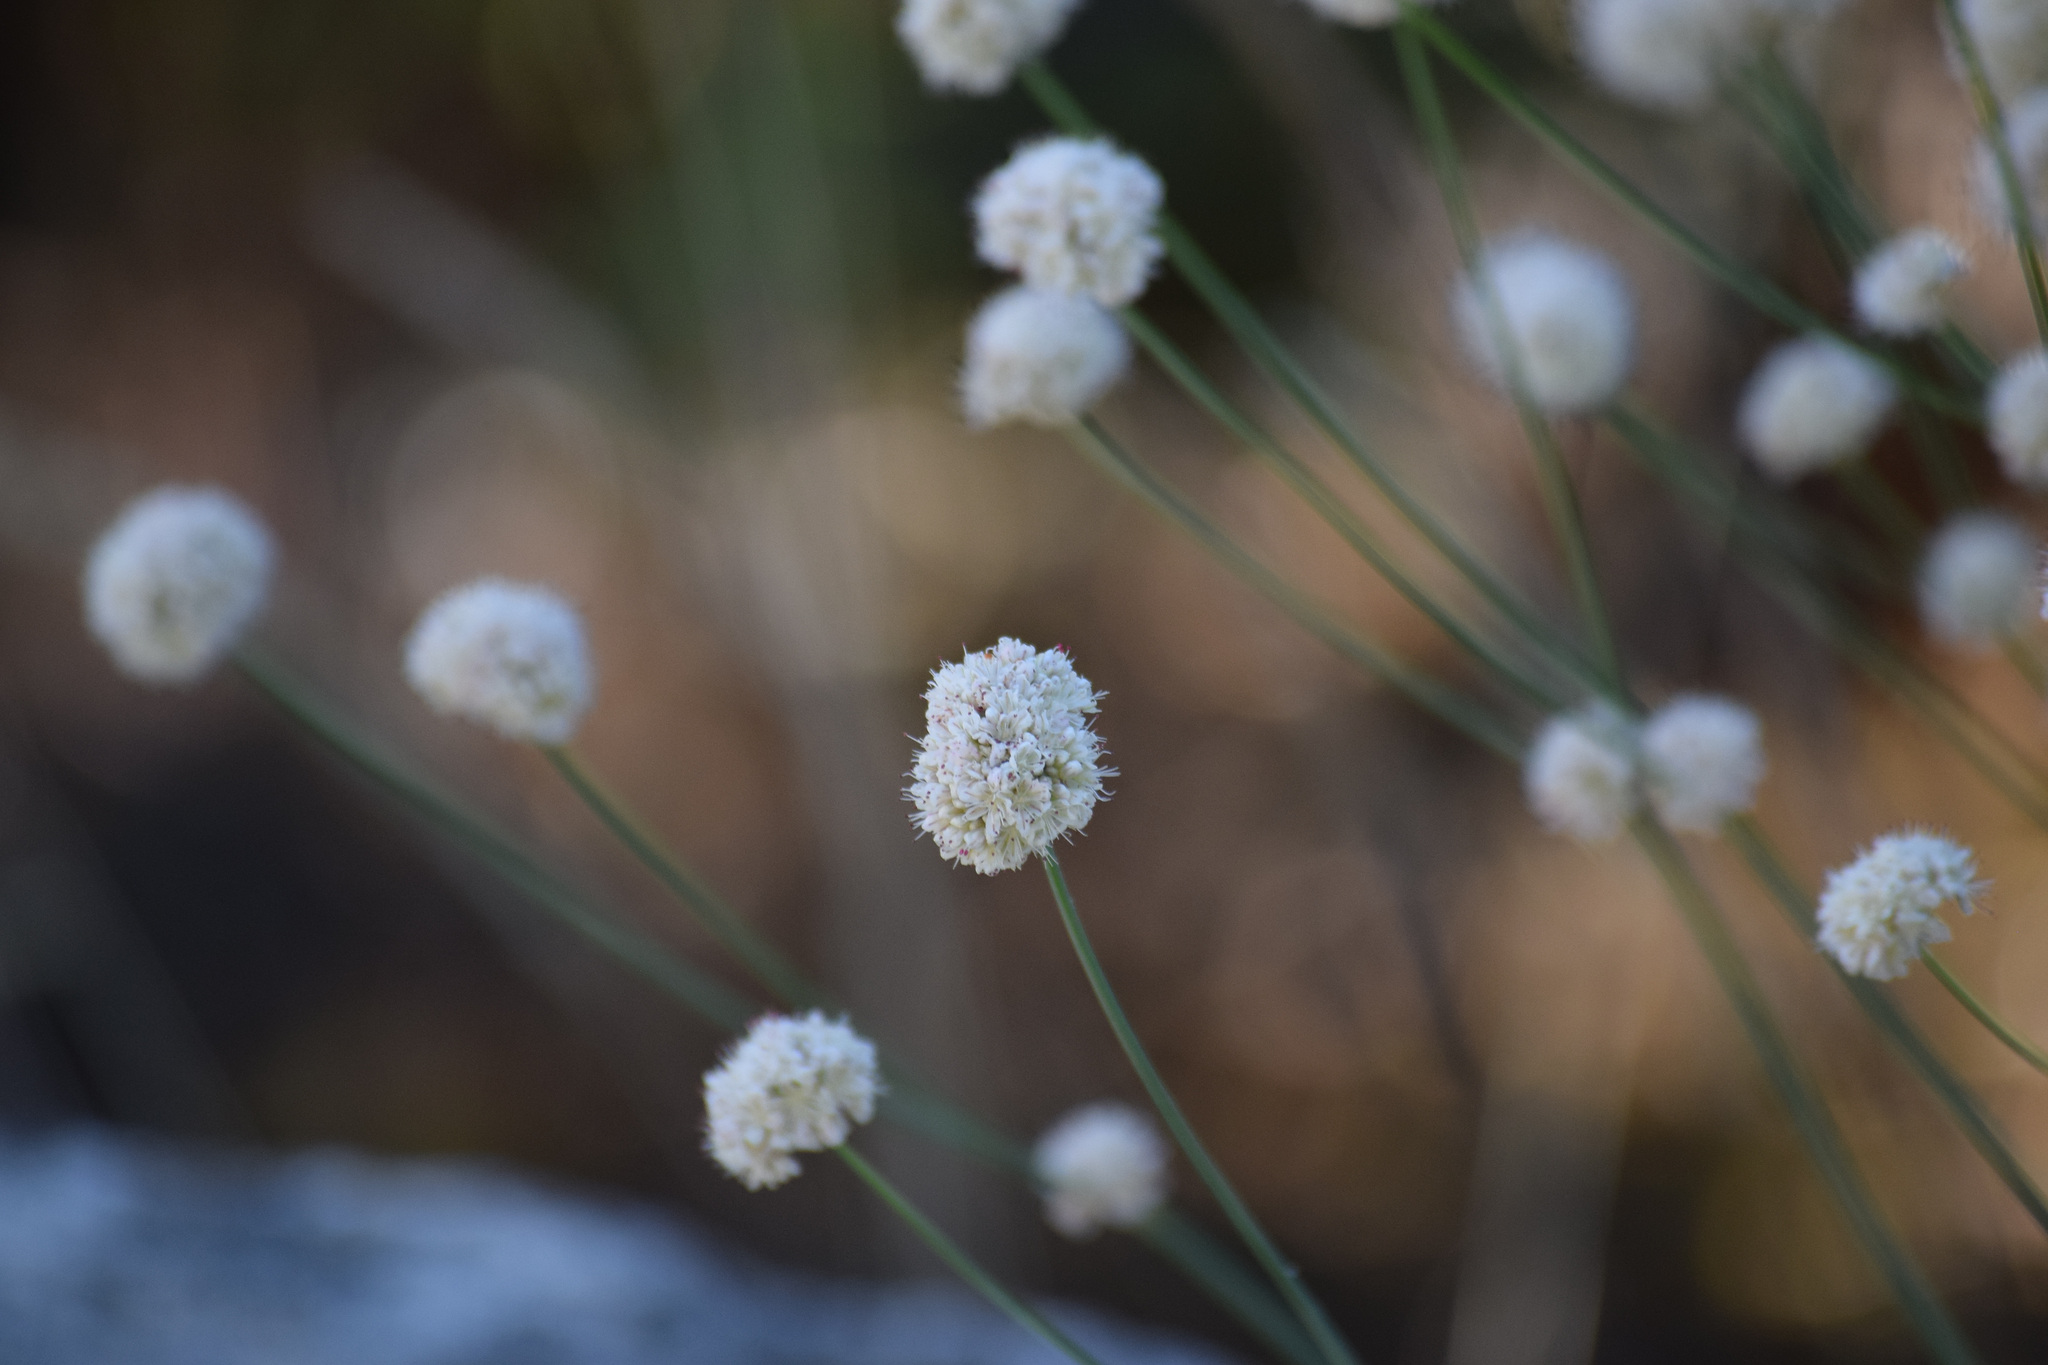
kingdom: Plantae
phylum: Tracheophyta
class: Magnoliopsida
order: Caryophyllales
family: Polygonaceae
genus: Eriogonum
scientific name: Eriogonum nudum
